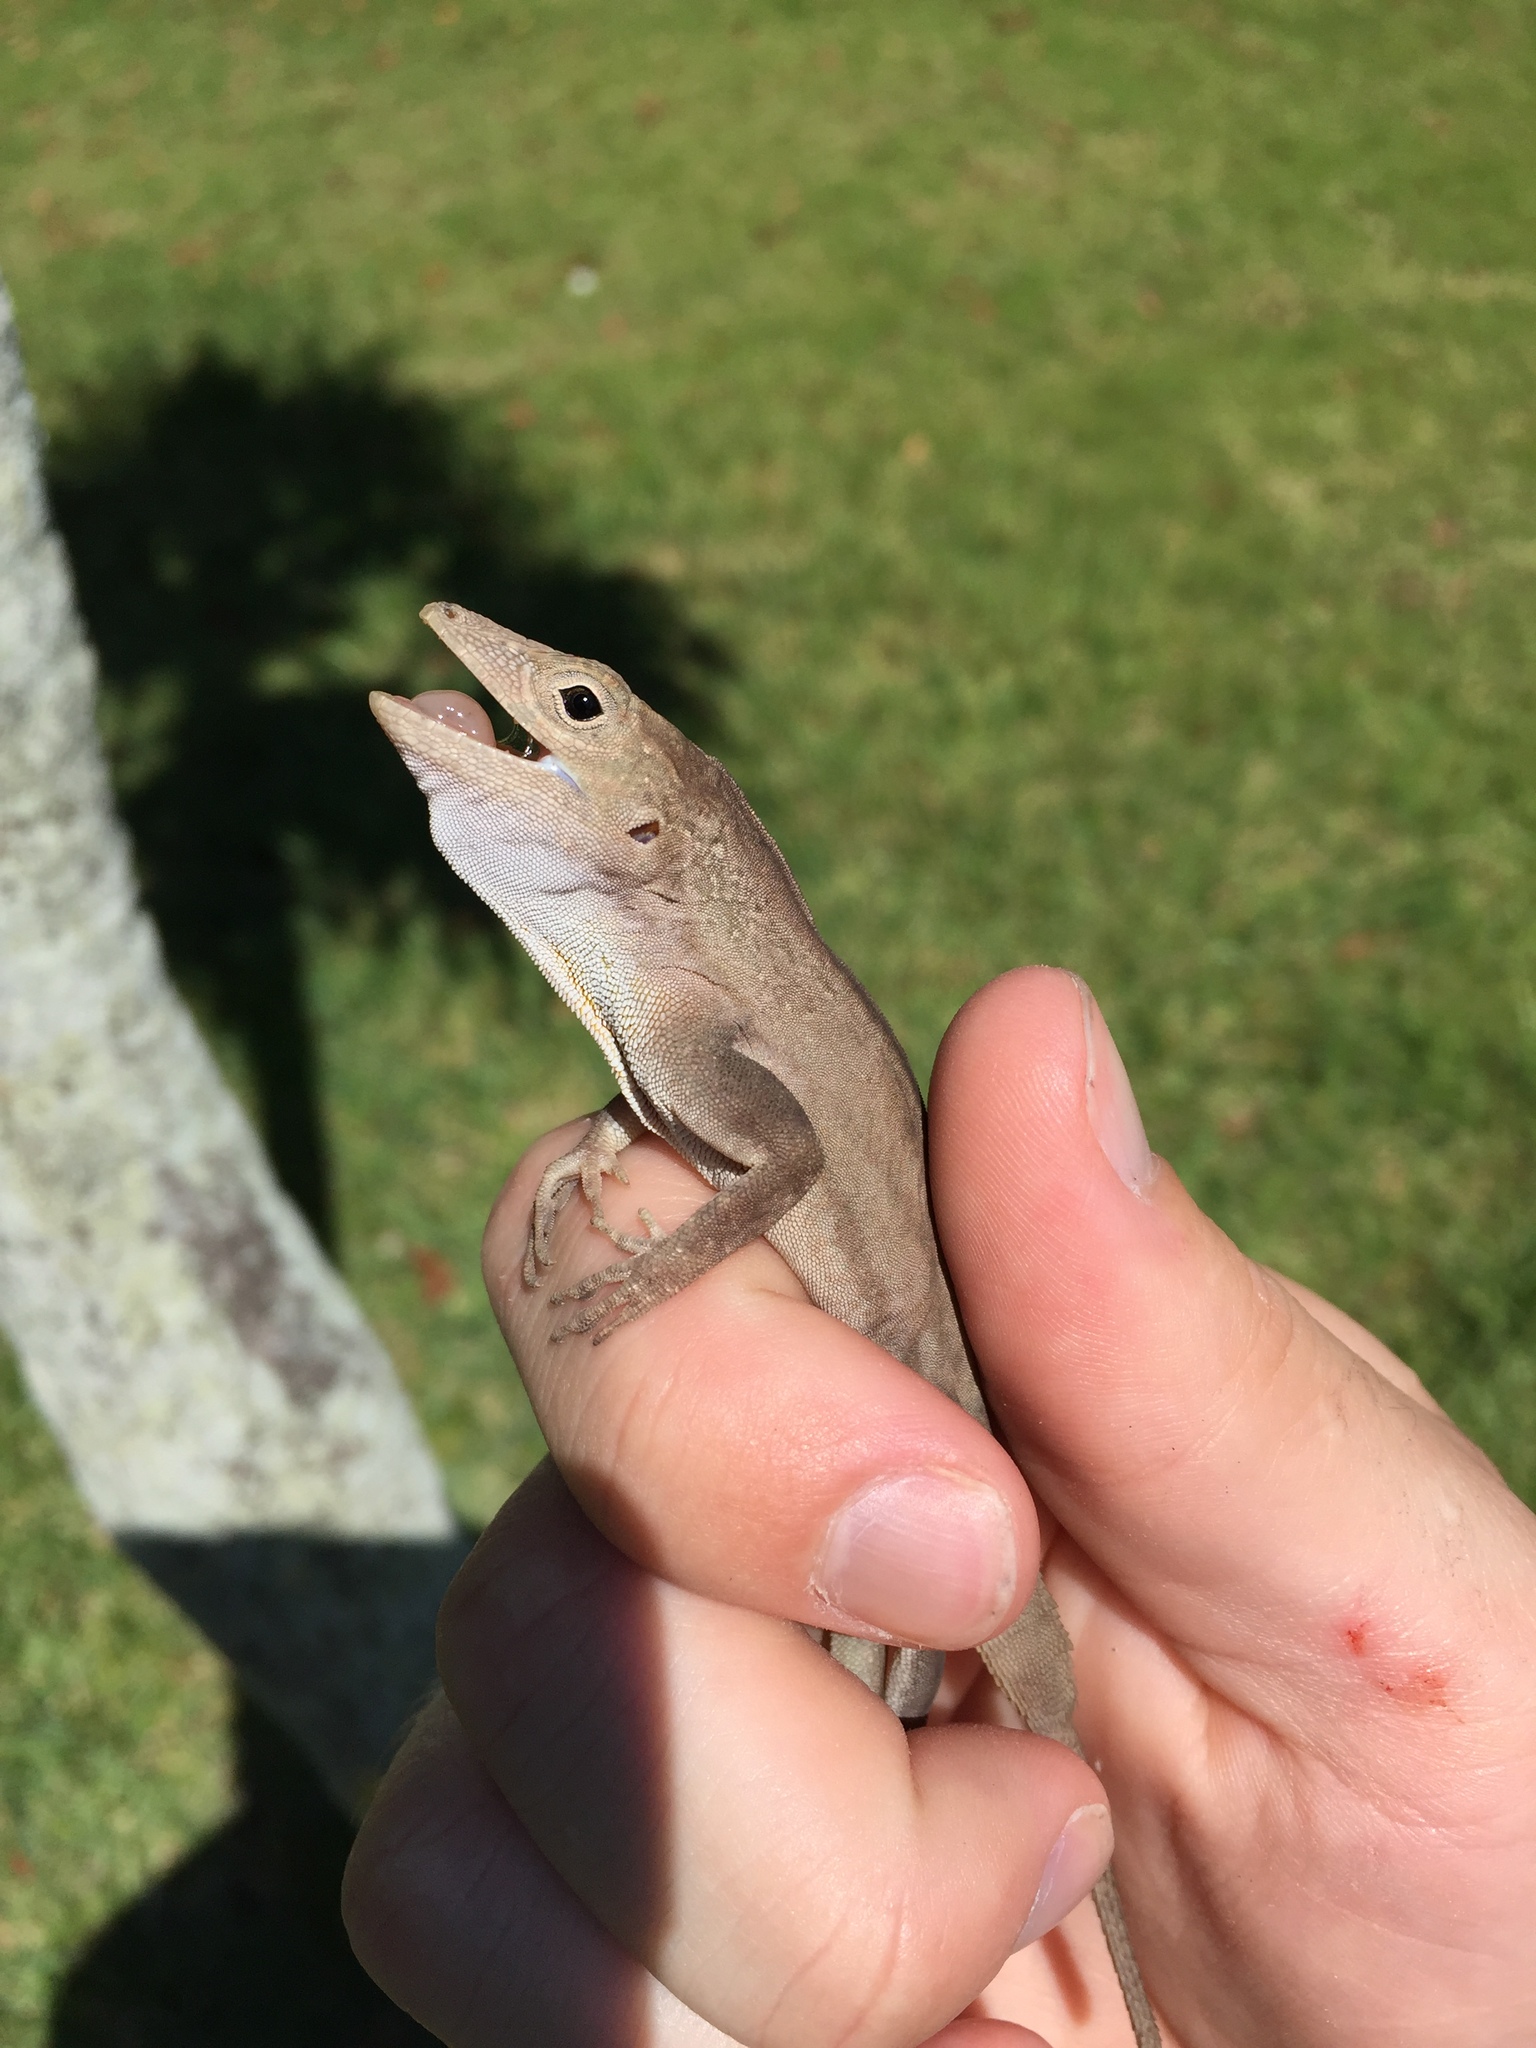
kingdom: Animalia
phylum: Chordata
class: Squamata
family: Dactyloidae
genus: Anolis
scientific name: Anolis cristatellus
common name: Crested anole
